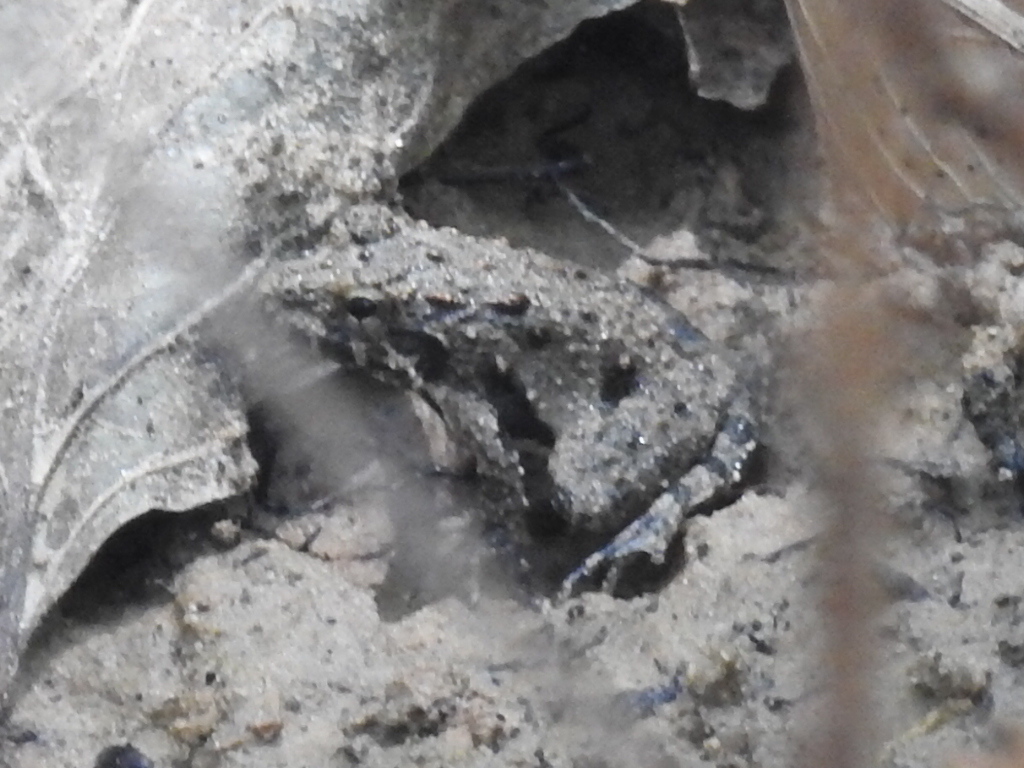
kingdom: Animalia
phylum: Chordata
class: Amphibia
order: Anura
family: Hylidae
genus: Acris
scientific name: Acris blanchardi
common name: Blanchard's cricket frog
